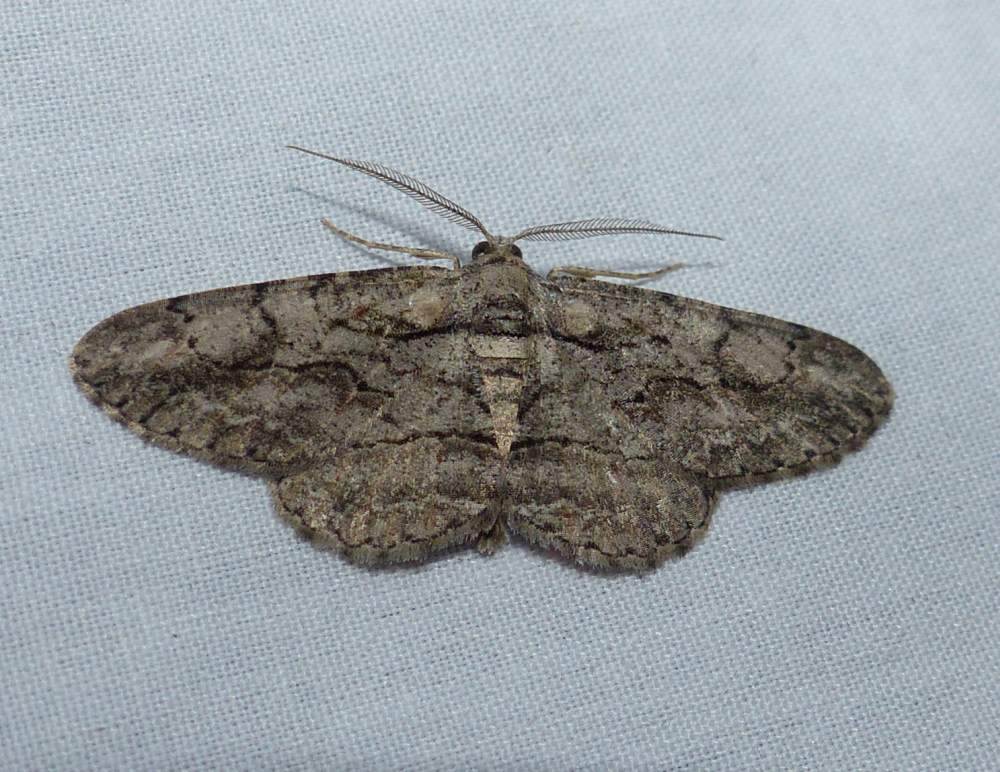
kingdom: Animalia
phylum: Arthropoda
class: Insecta
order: Lepidoptera
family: Geometridae
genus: Anavitrinella
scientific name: Anavitrinella pampinaria
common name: Common gray
